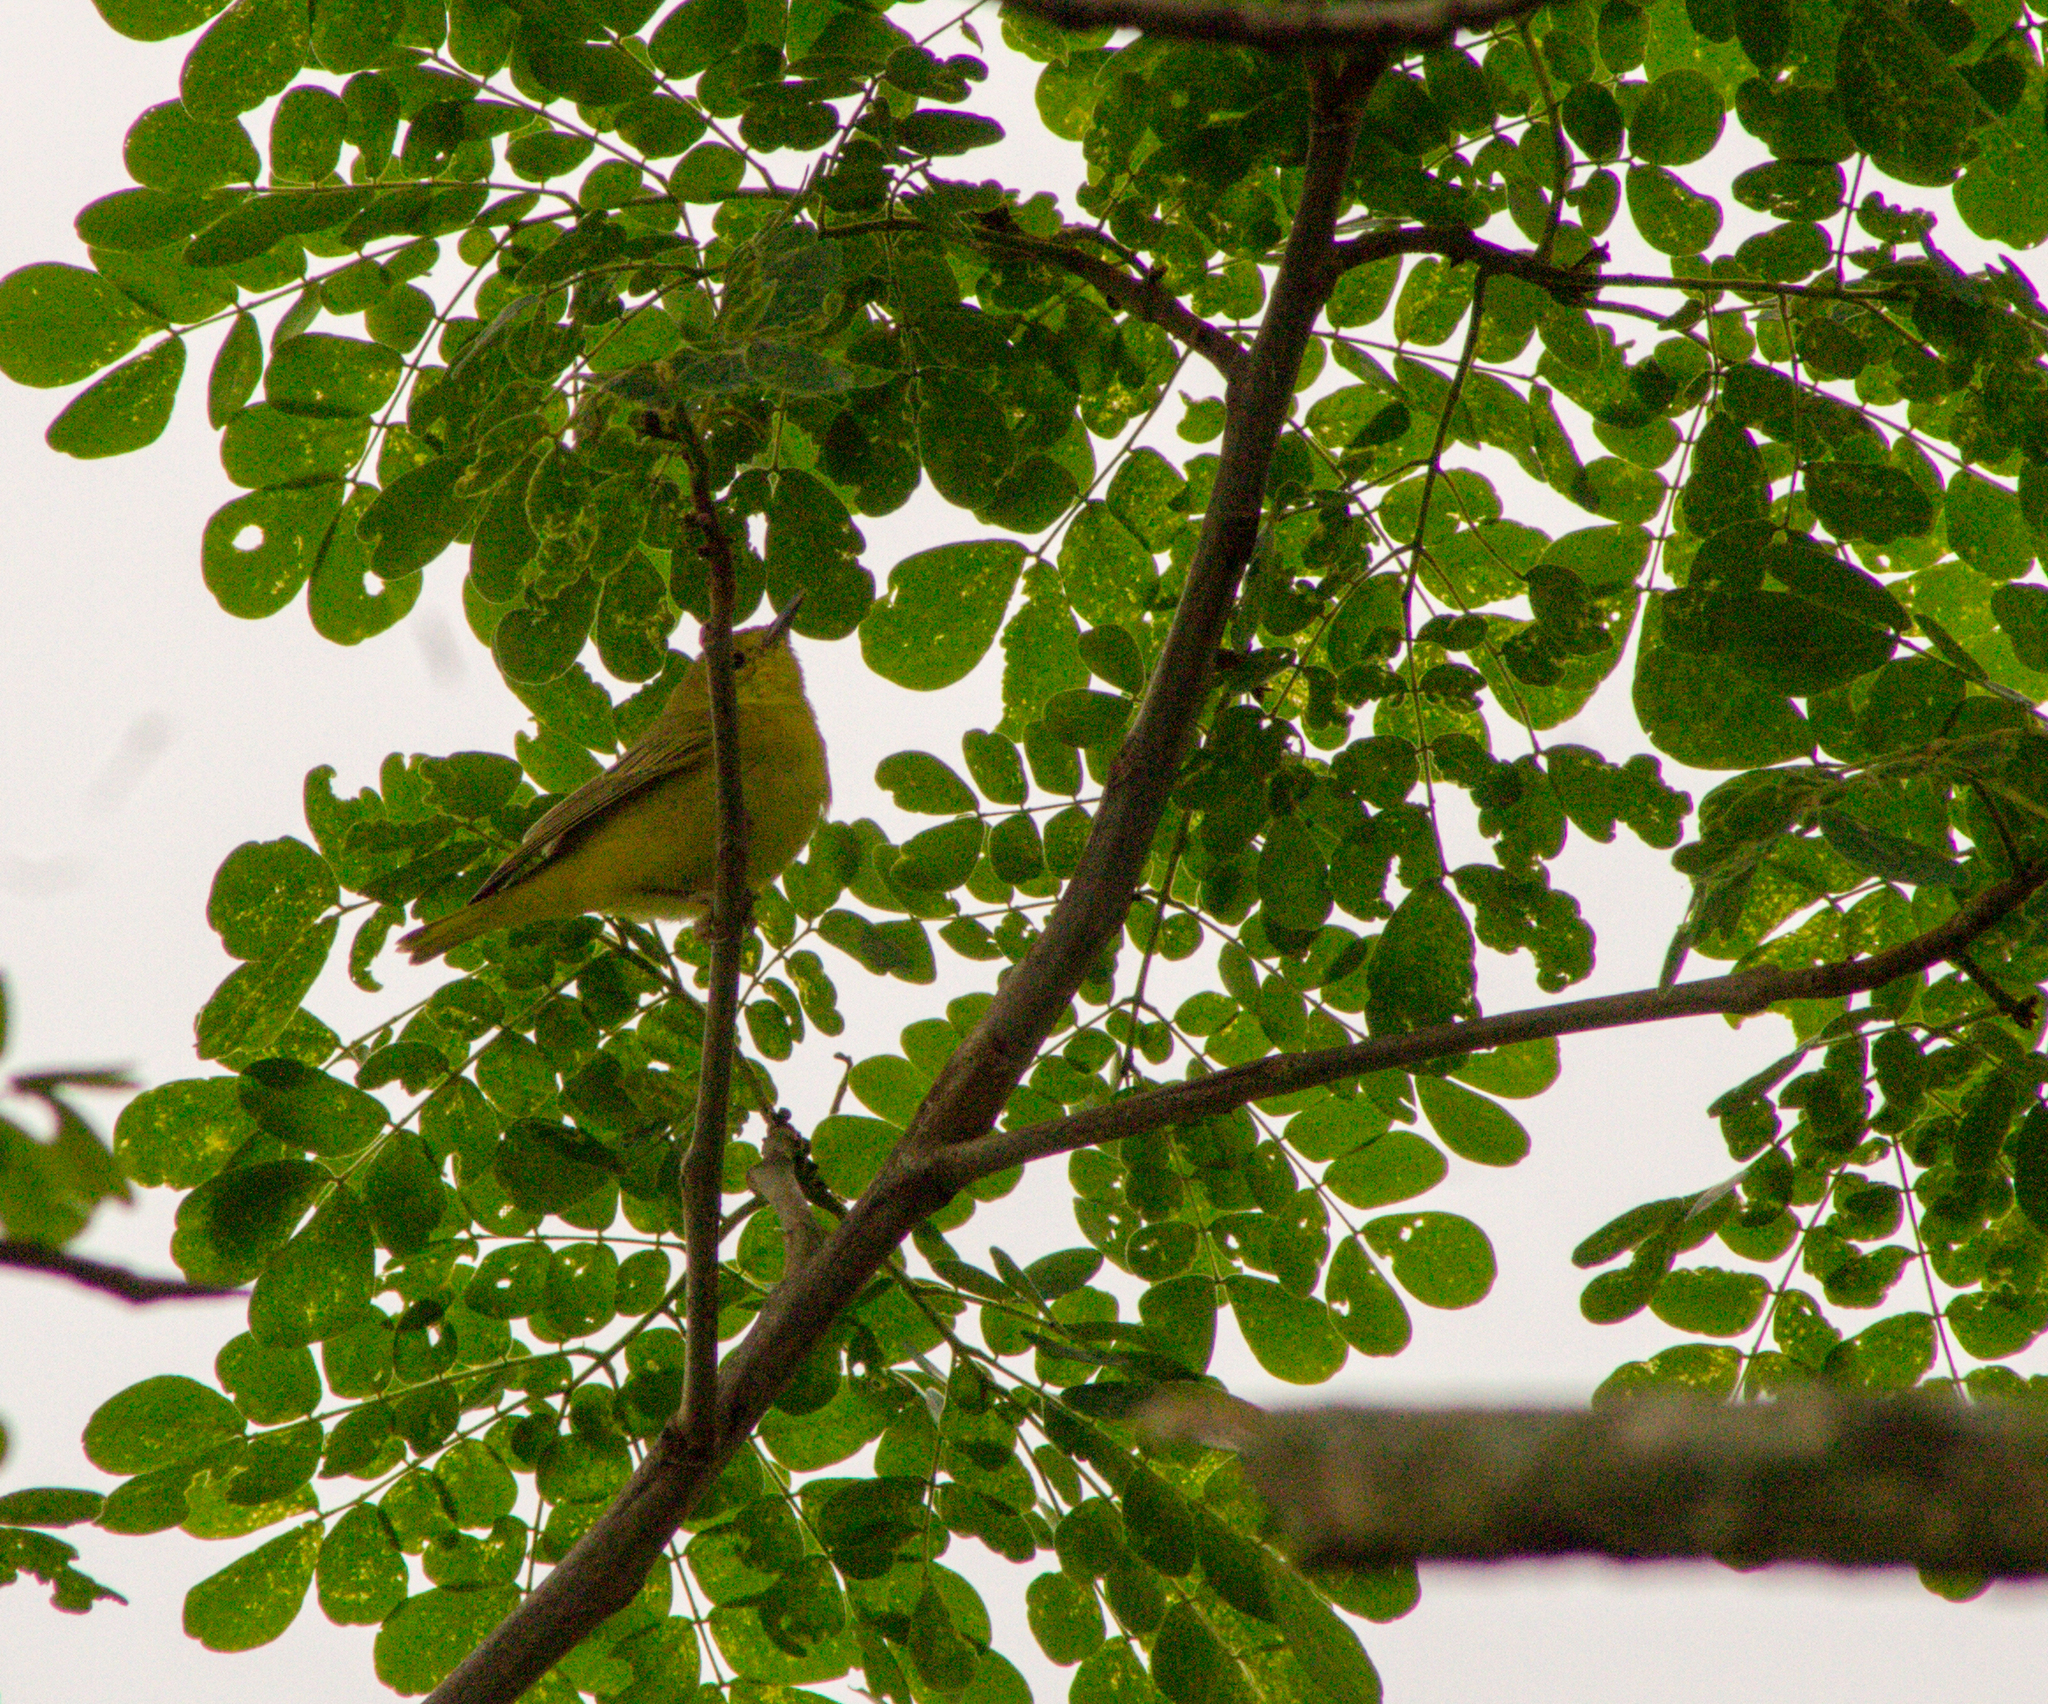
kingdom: Animalia
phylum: Chordata
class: Aves
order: Passeriformes
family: Parulidae
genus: Setophaga
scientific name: Setophaga petechia
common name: Yellow warbler
